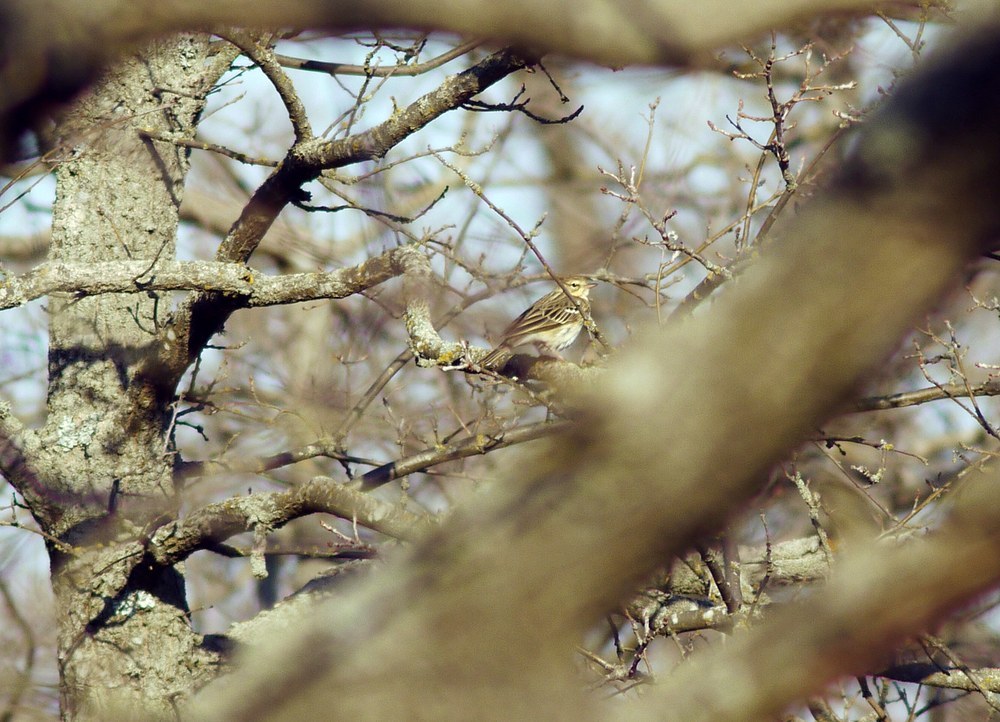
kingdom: Animalia
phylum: Chordata
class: Aves
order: Passeriformes
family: Motacillidae
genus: Anthus
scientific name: Anthus trivialis
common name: Tree pipit
